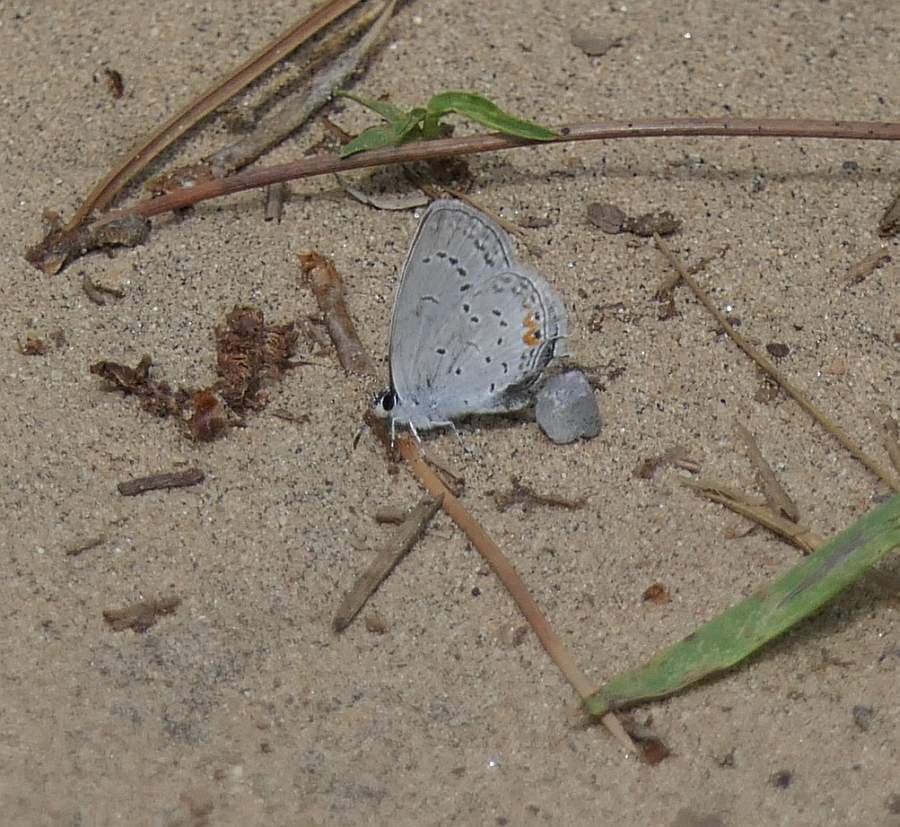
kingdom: Animalia
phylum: Arthropoda
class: Insecta
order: Lepidoptera
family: Lycaenidae
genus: Elkalyce
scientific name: Elkalyce comyntas
